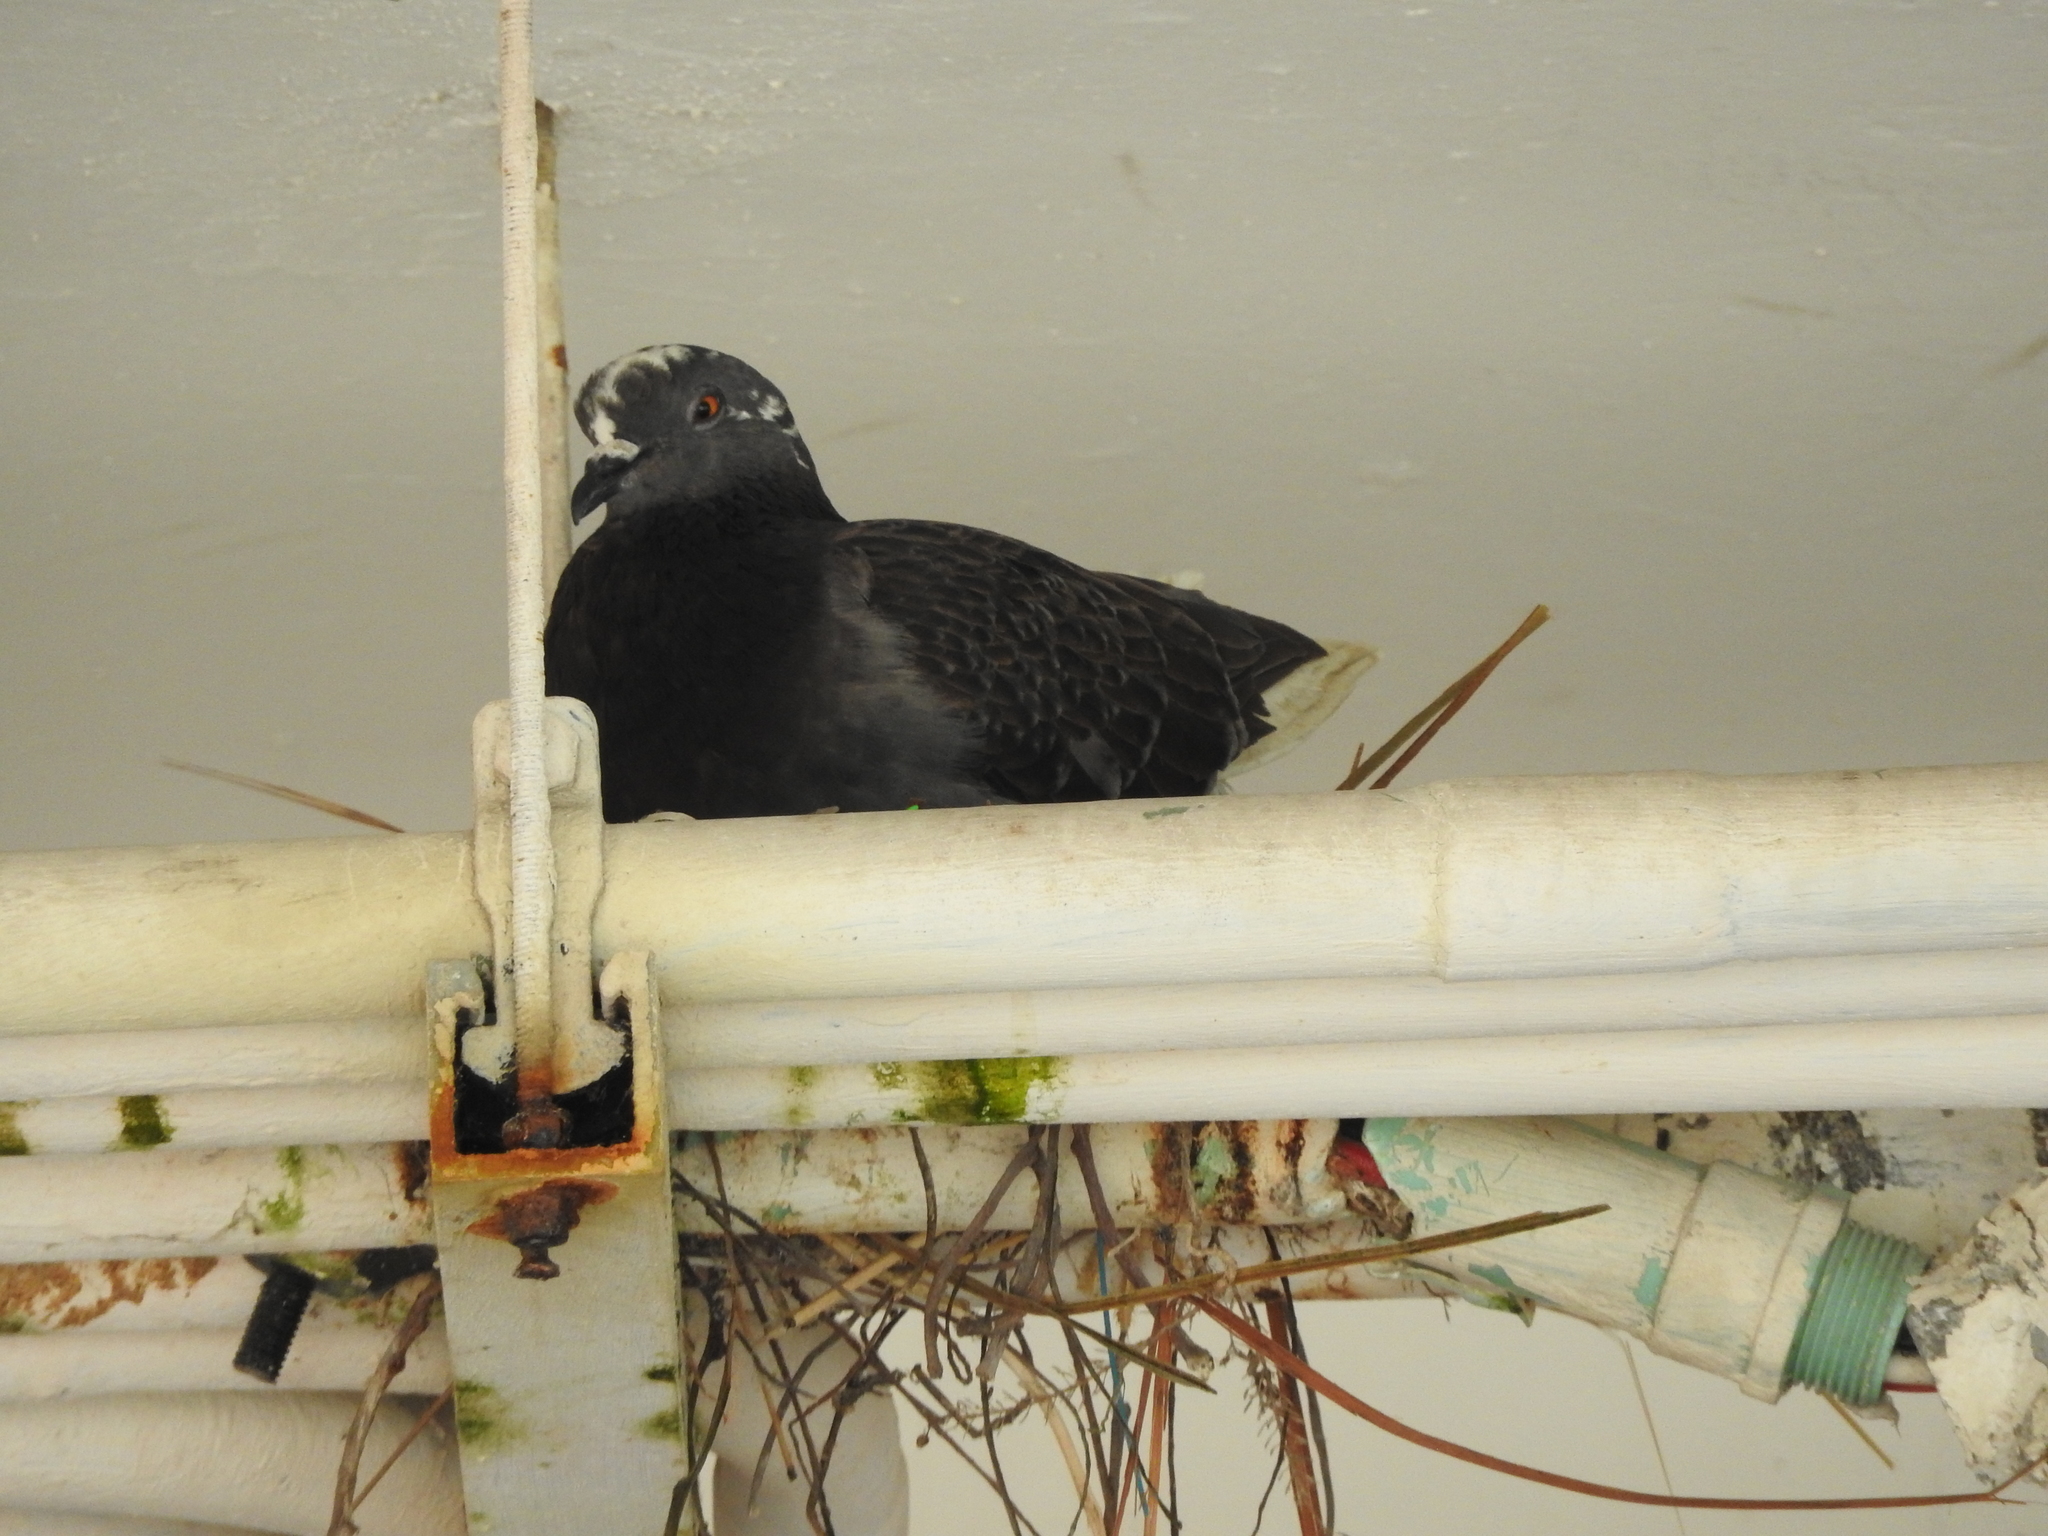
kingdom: Animalia
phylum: Chordata
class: Aves
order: Columbiformes
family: Columbidae
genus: Columba
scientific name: Columba livia
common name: Rock pigeon
